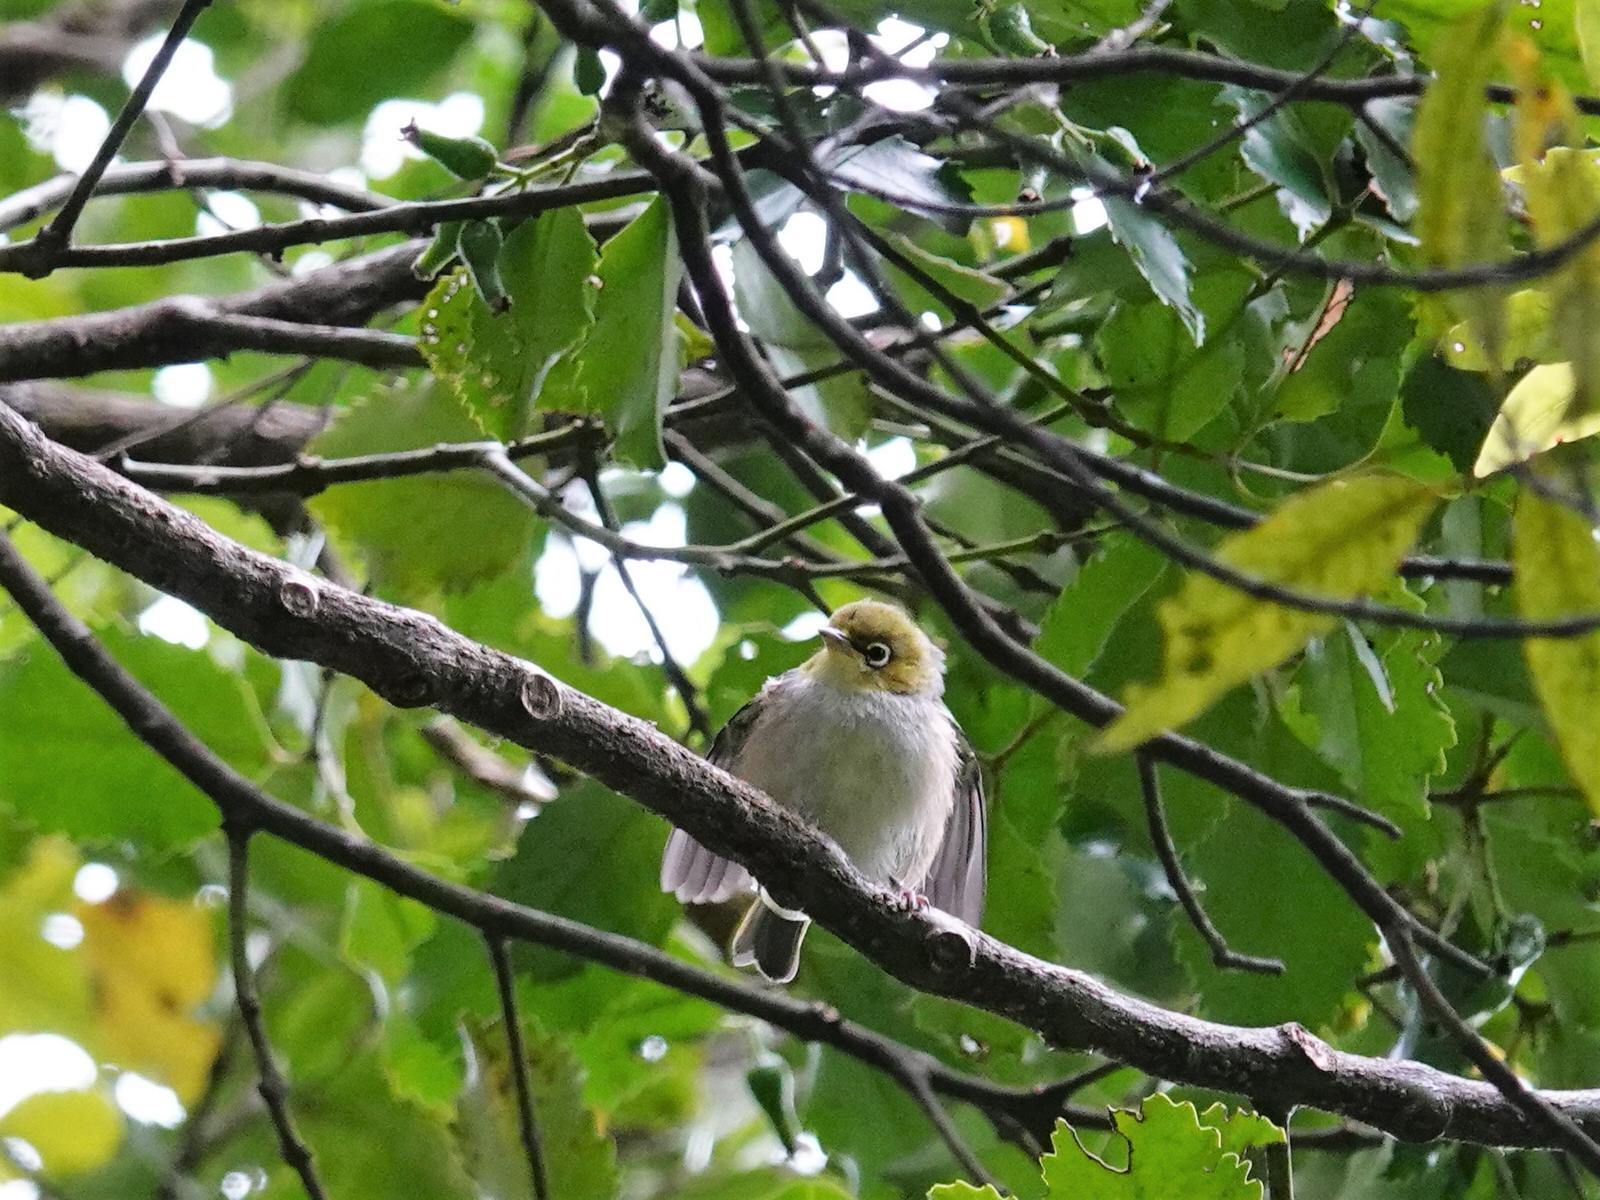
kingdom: Animalia
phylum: Chordata
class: Aves
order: Passeriformes
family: Zosteropidae
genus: Zosterops
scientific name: Zosterops lateralis
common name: Silvereye
